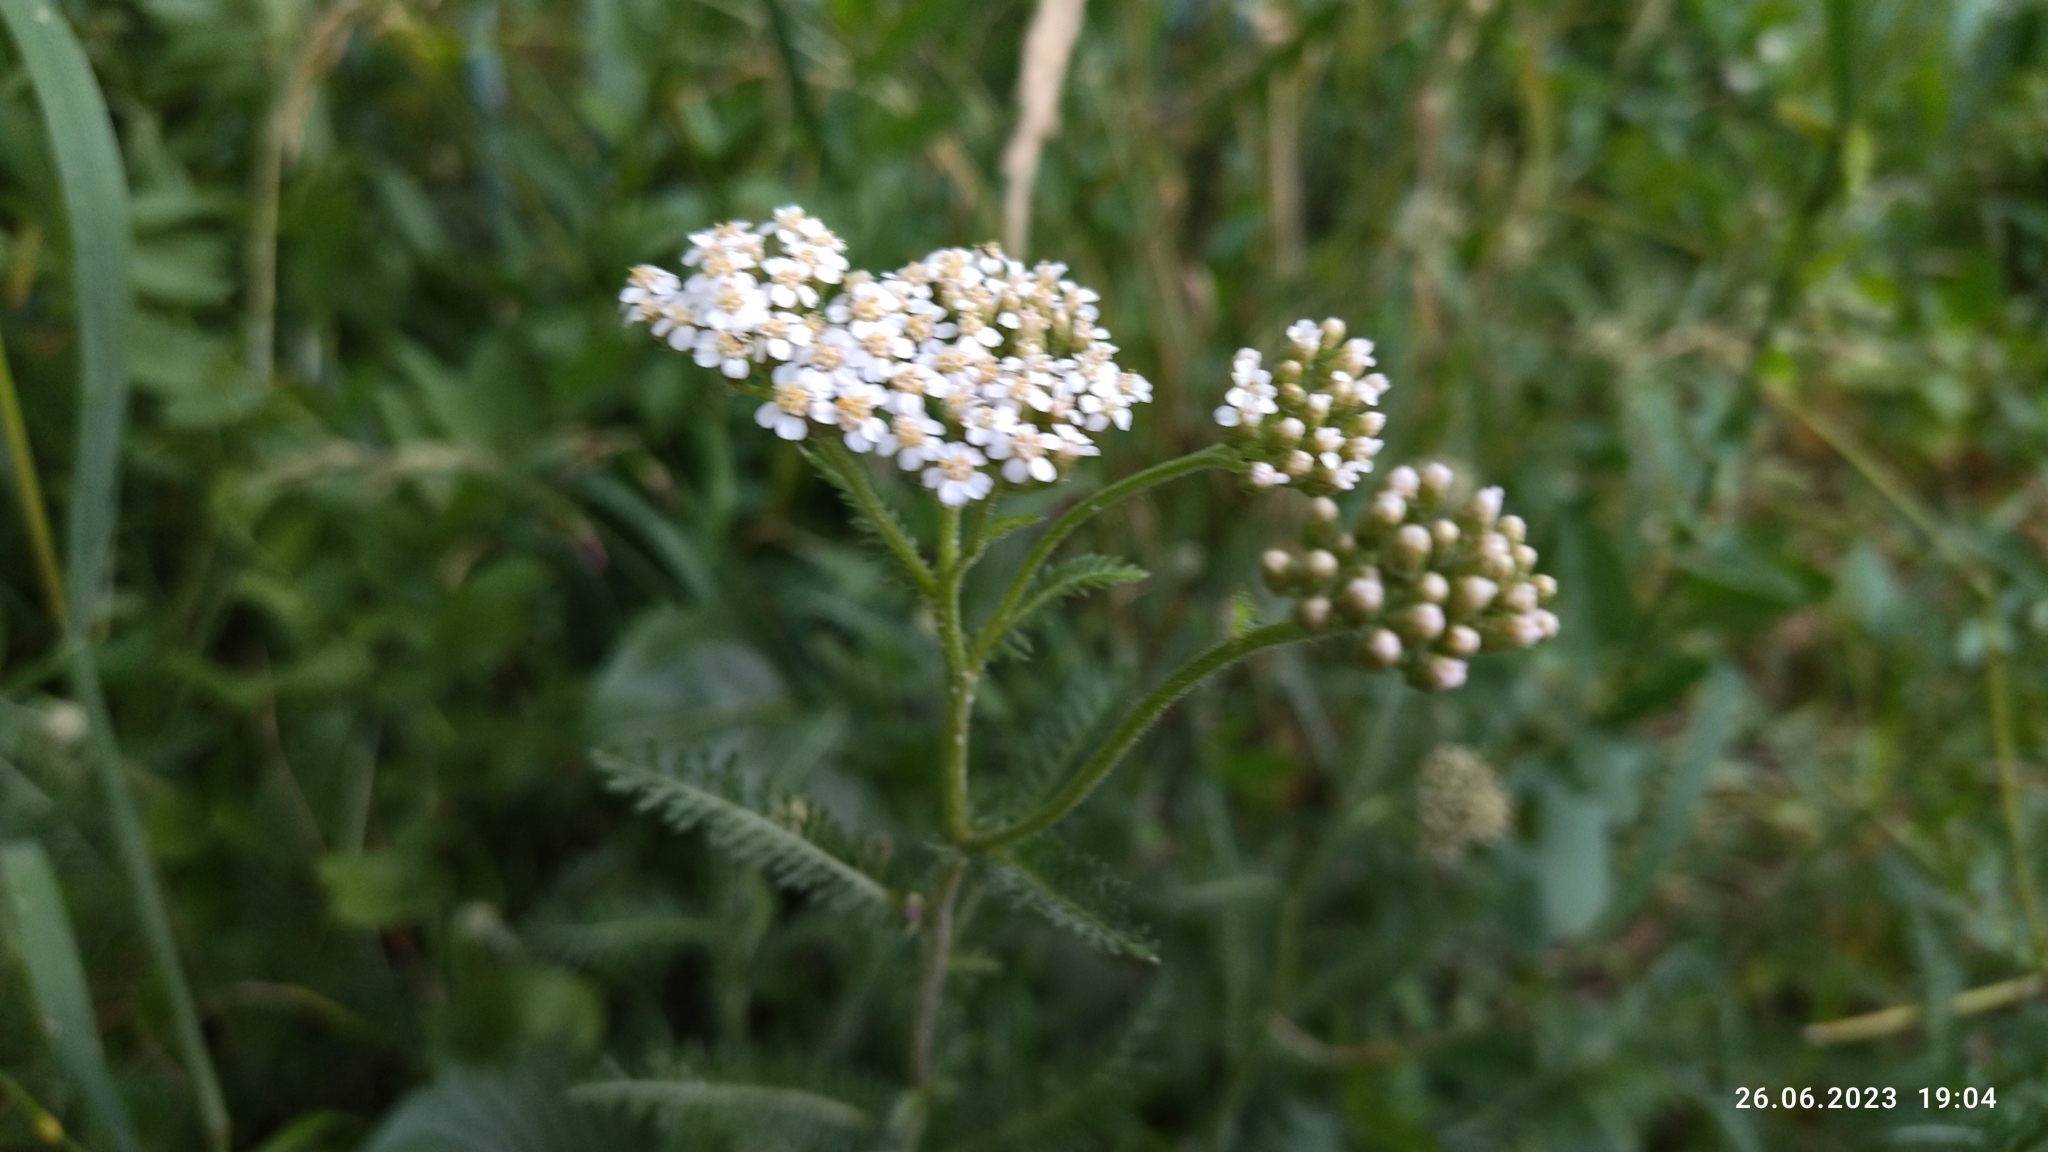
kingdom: Plantae
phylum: Tracheophyta
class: Magnoliopsida
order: Asterales
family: Asteraceae
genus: Achillea
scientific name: Achillea millefolium
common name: Yarrow
